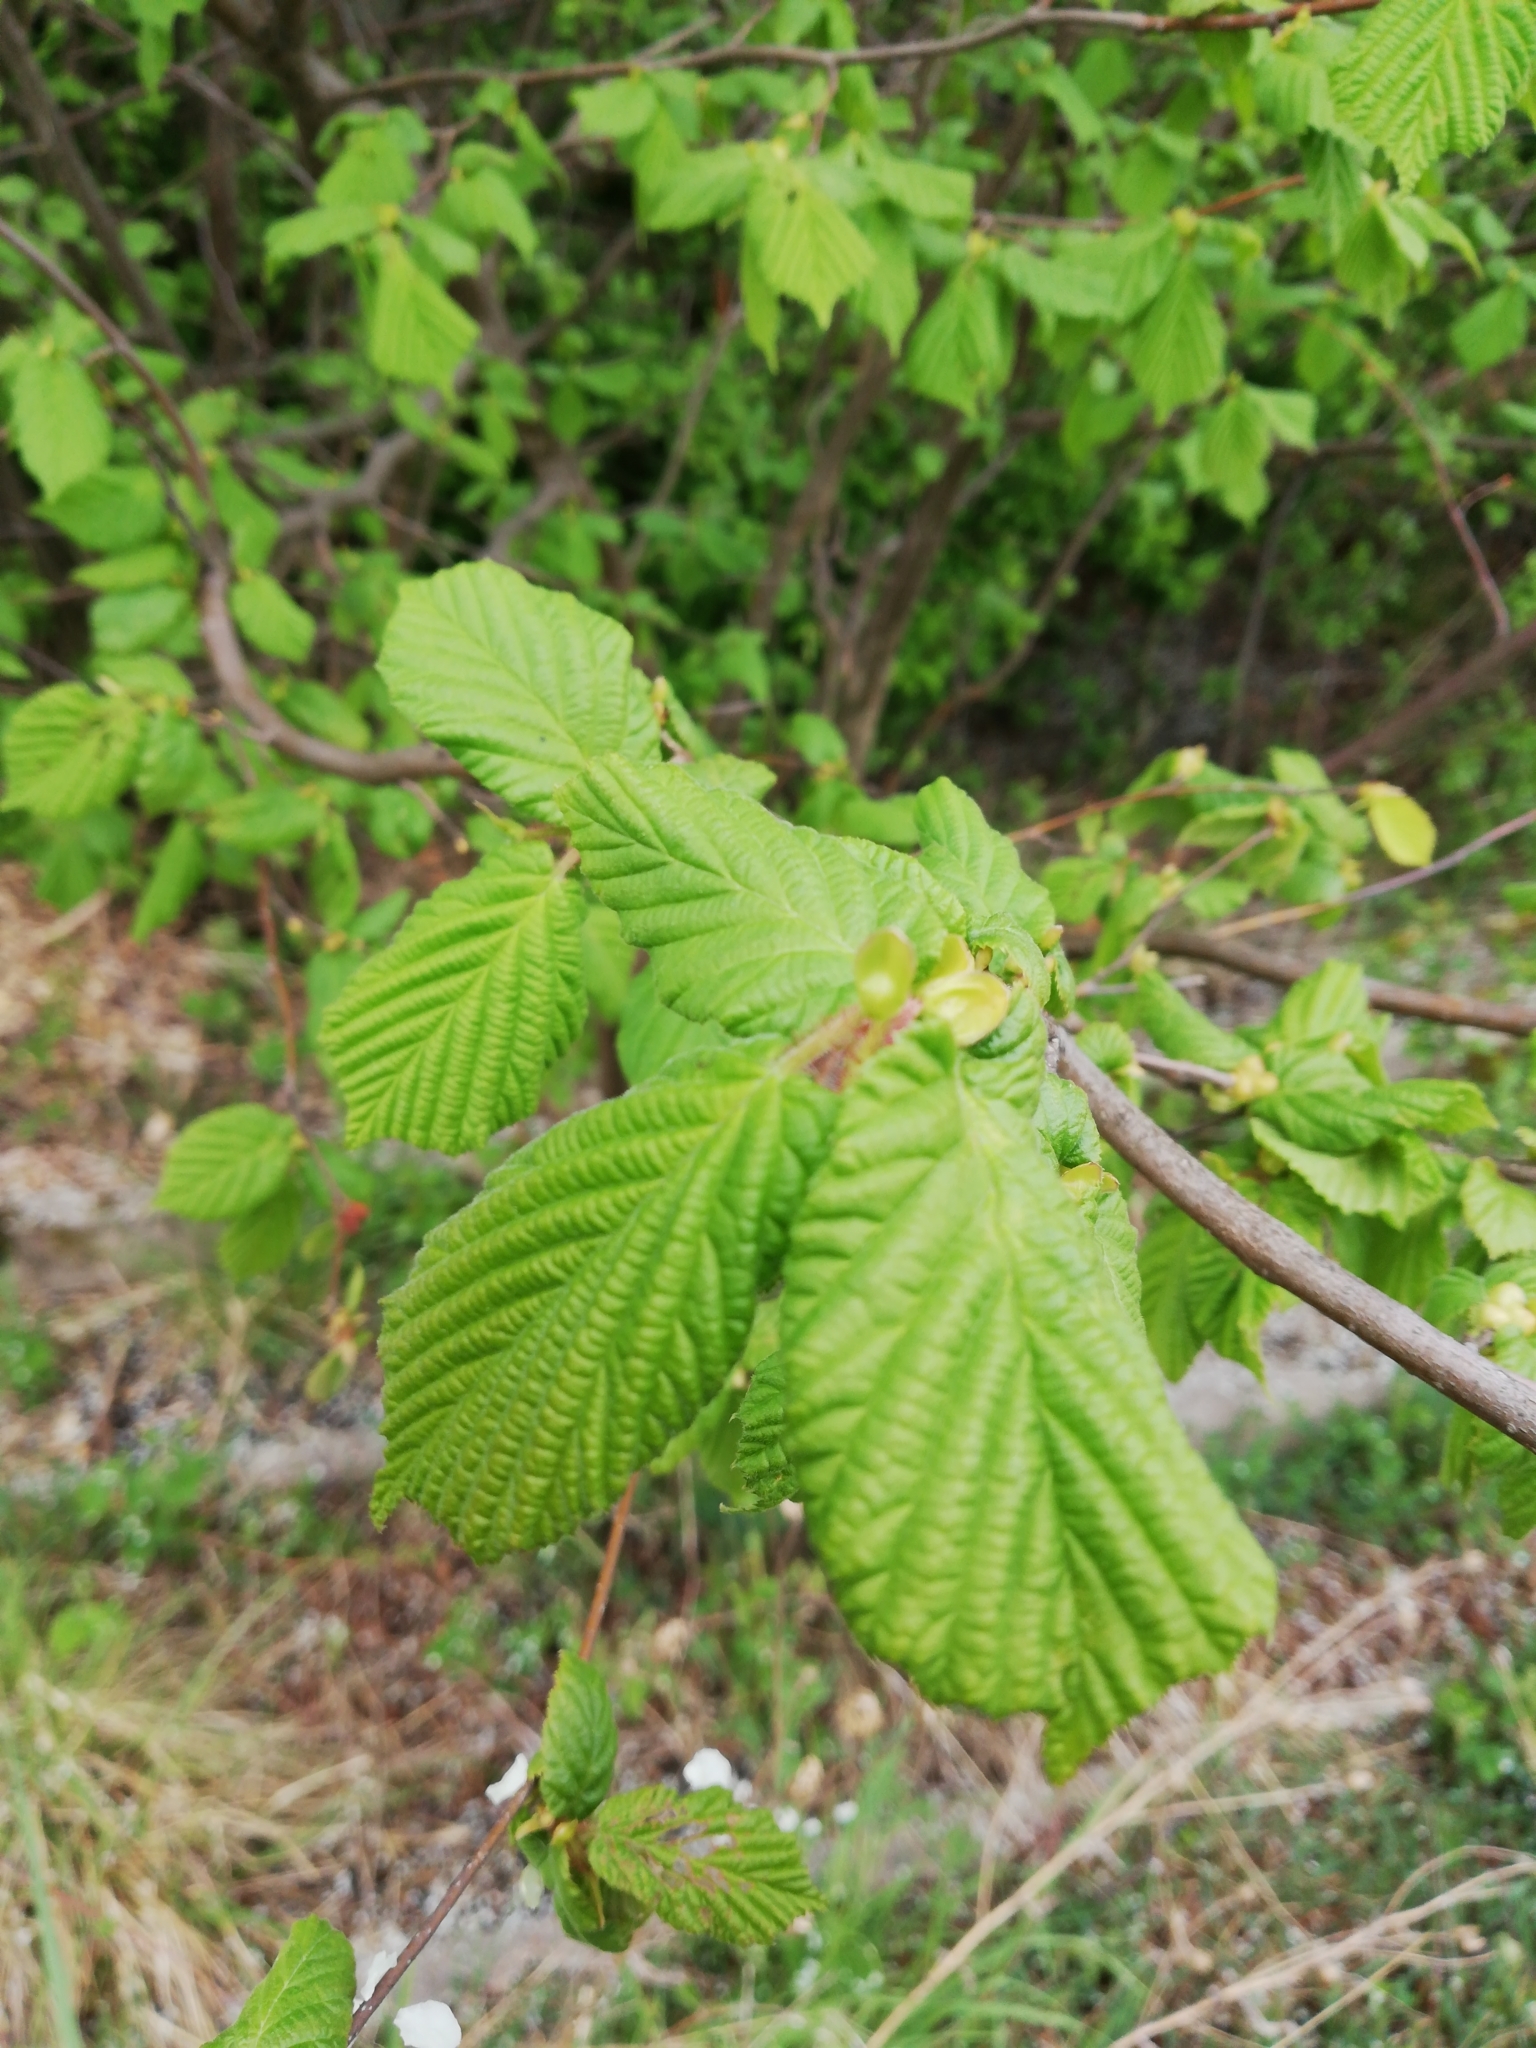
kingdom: Plantae
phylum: Tracheophyta
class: Magnoliopsida
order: Fagales
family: Betulaceae
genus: Corylus
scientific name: Corylus avellana
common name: European hazel
